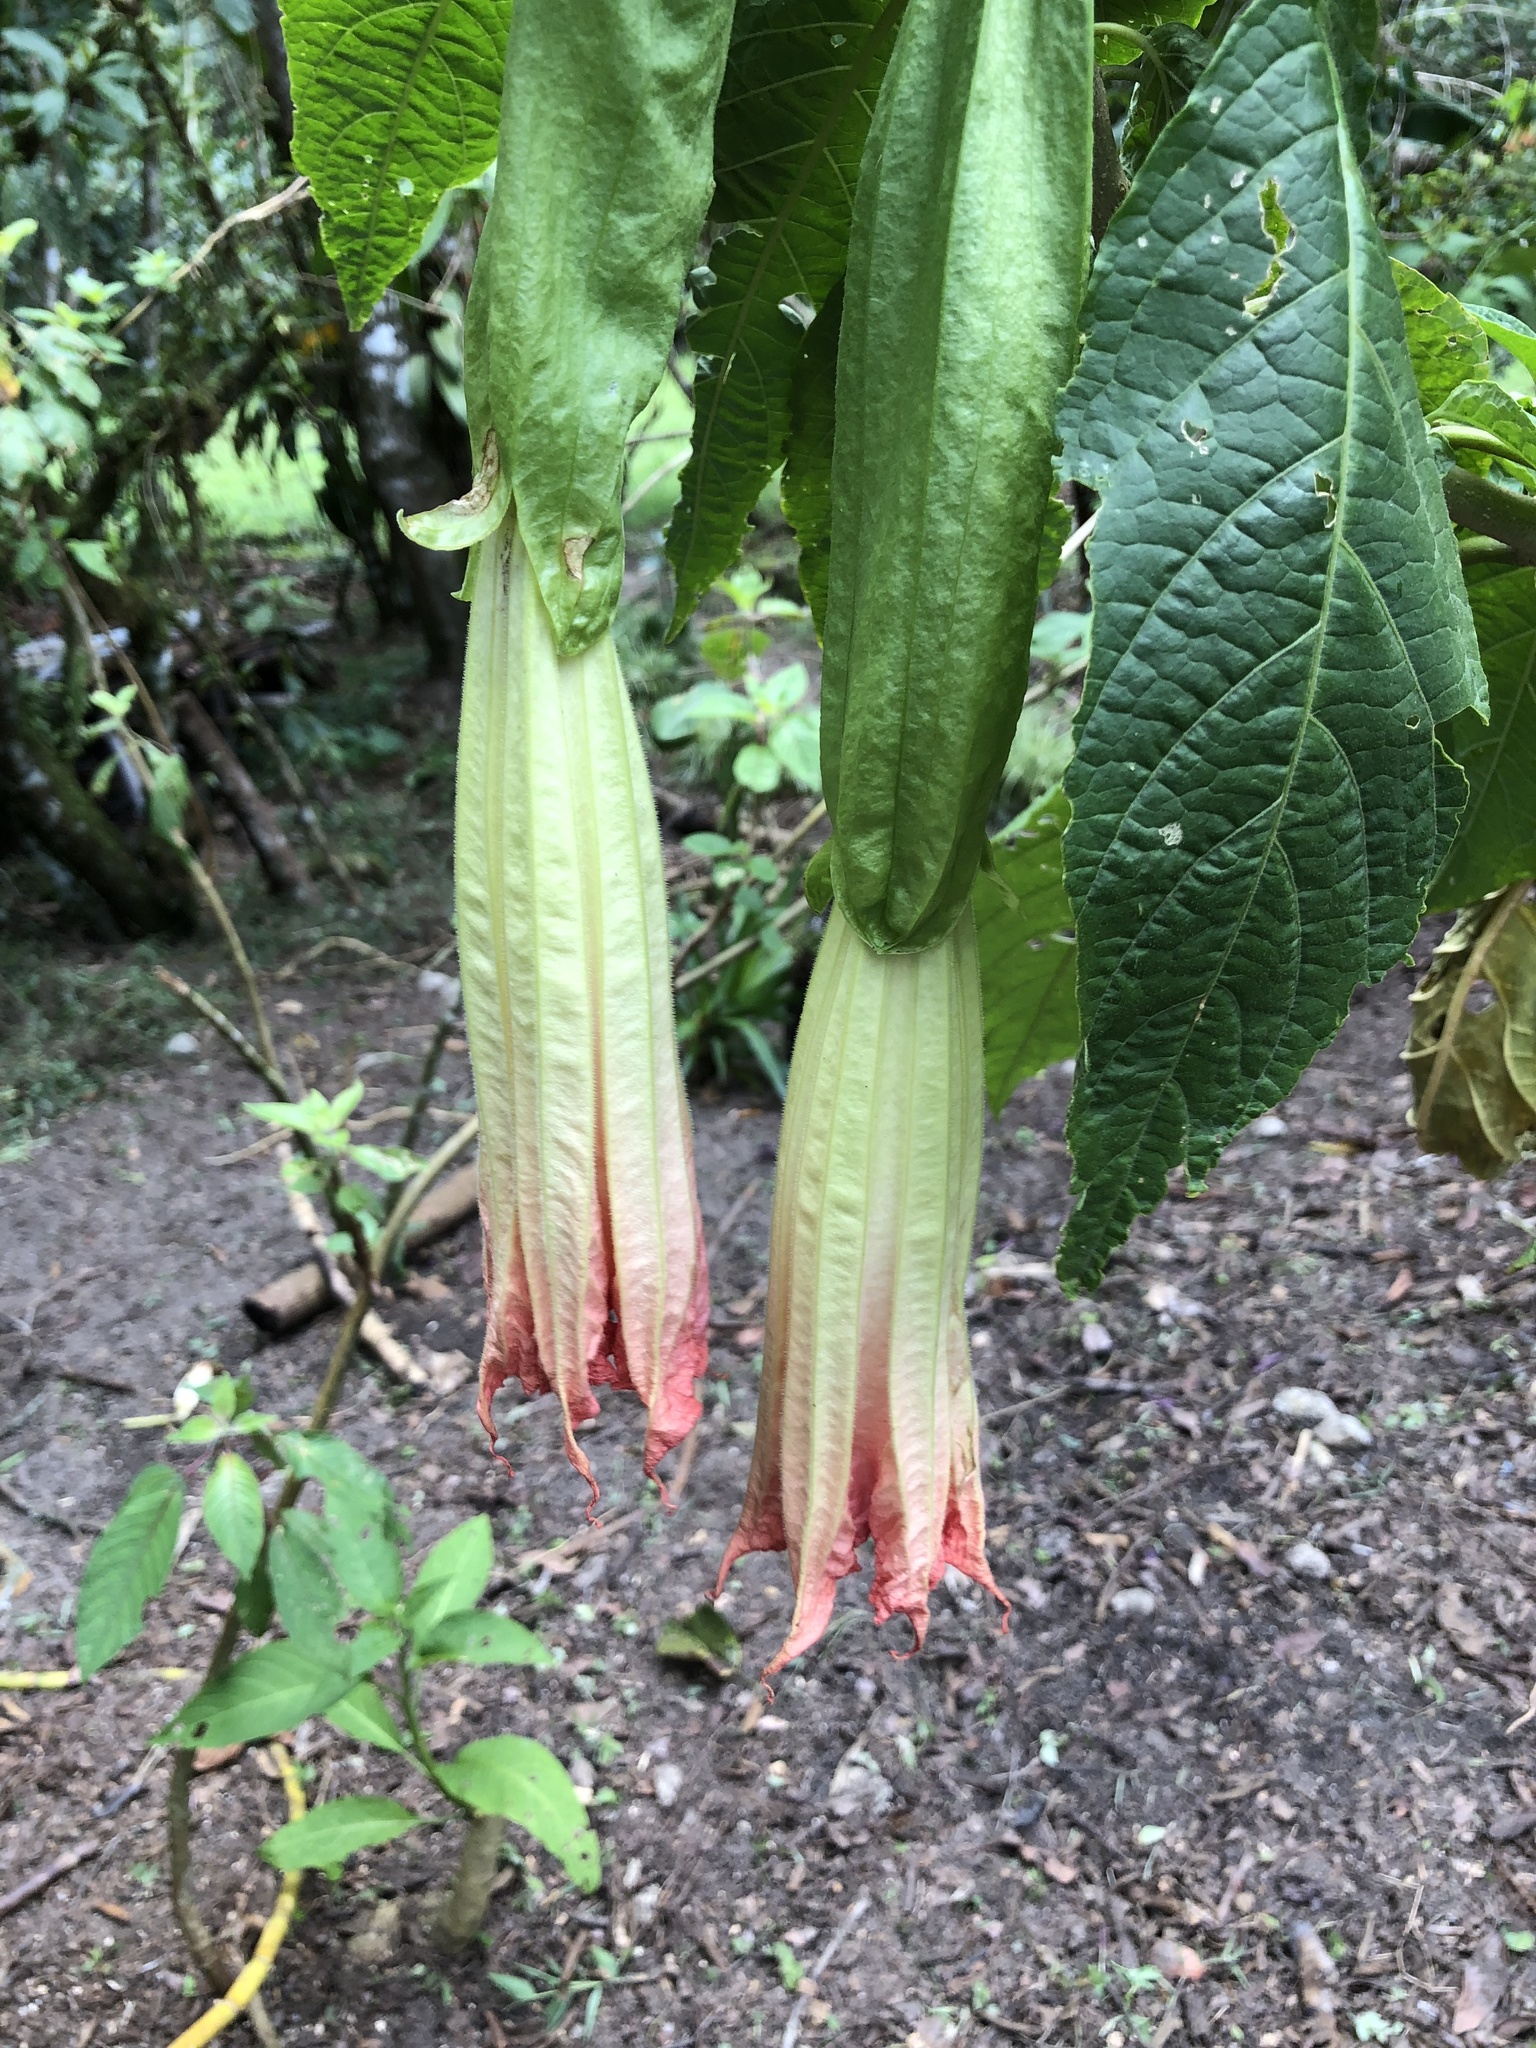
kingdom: Plantae
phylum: Tracheophyta
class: Magnoliopsida
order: Solanales
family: Solanaceae
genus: Brugmansia
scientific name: Brugmansia candida
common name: Angel's-trumpet
